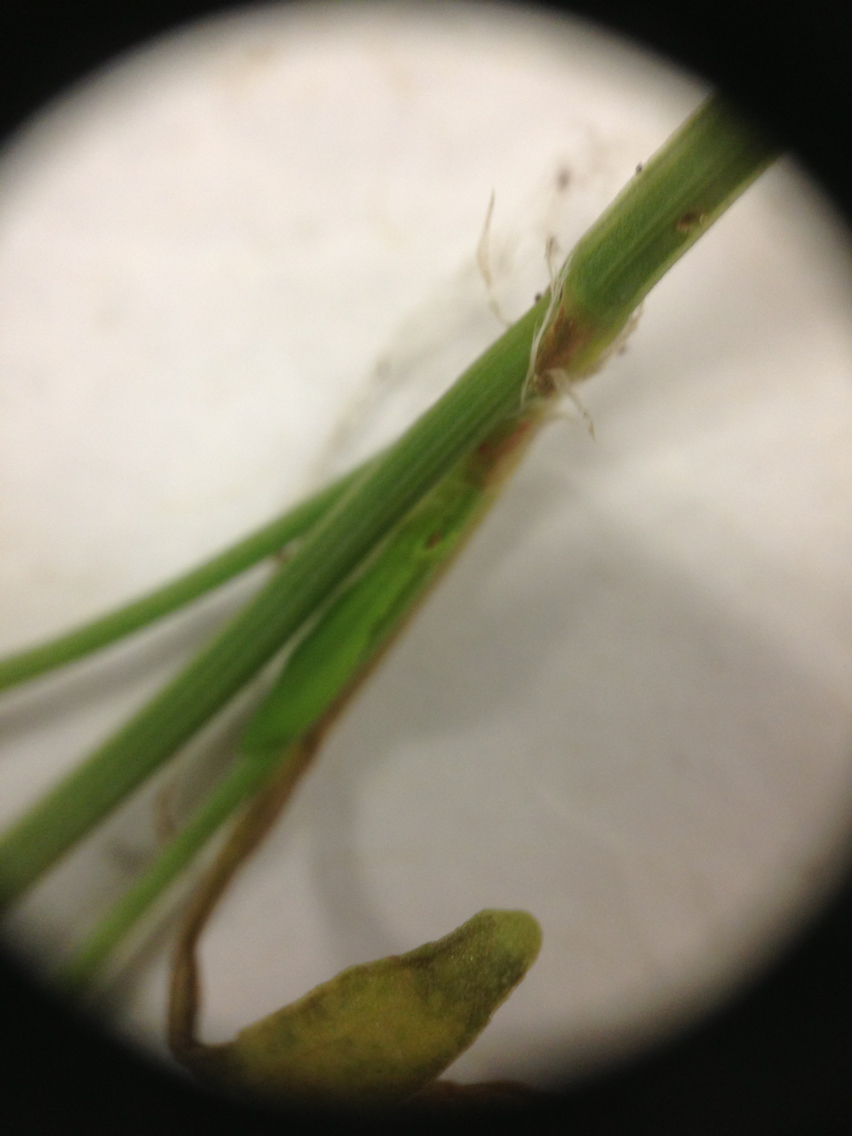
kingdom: Plantae
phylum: Tracheophyta
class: Magnoliopsida
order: Caryophyllales
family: Polygonaceae
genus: Rumex
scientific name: Rumex acetosella
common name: Common sheep sorrel
